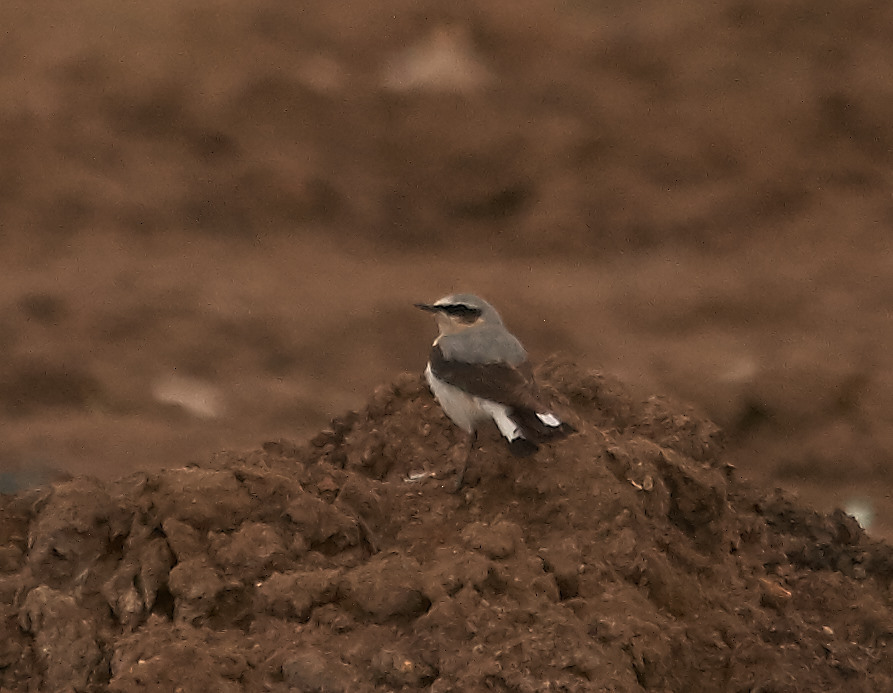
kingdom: Animalia
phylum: Chordata
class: Aves
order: Passeriformes
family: Muscicapidae
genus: Oenanthe
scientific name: Oenanthe oenanthe
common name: Northern wheatear
